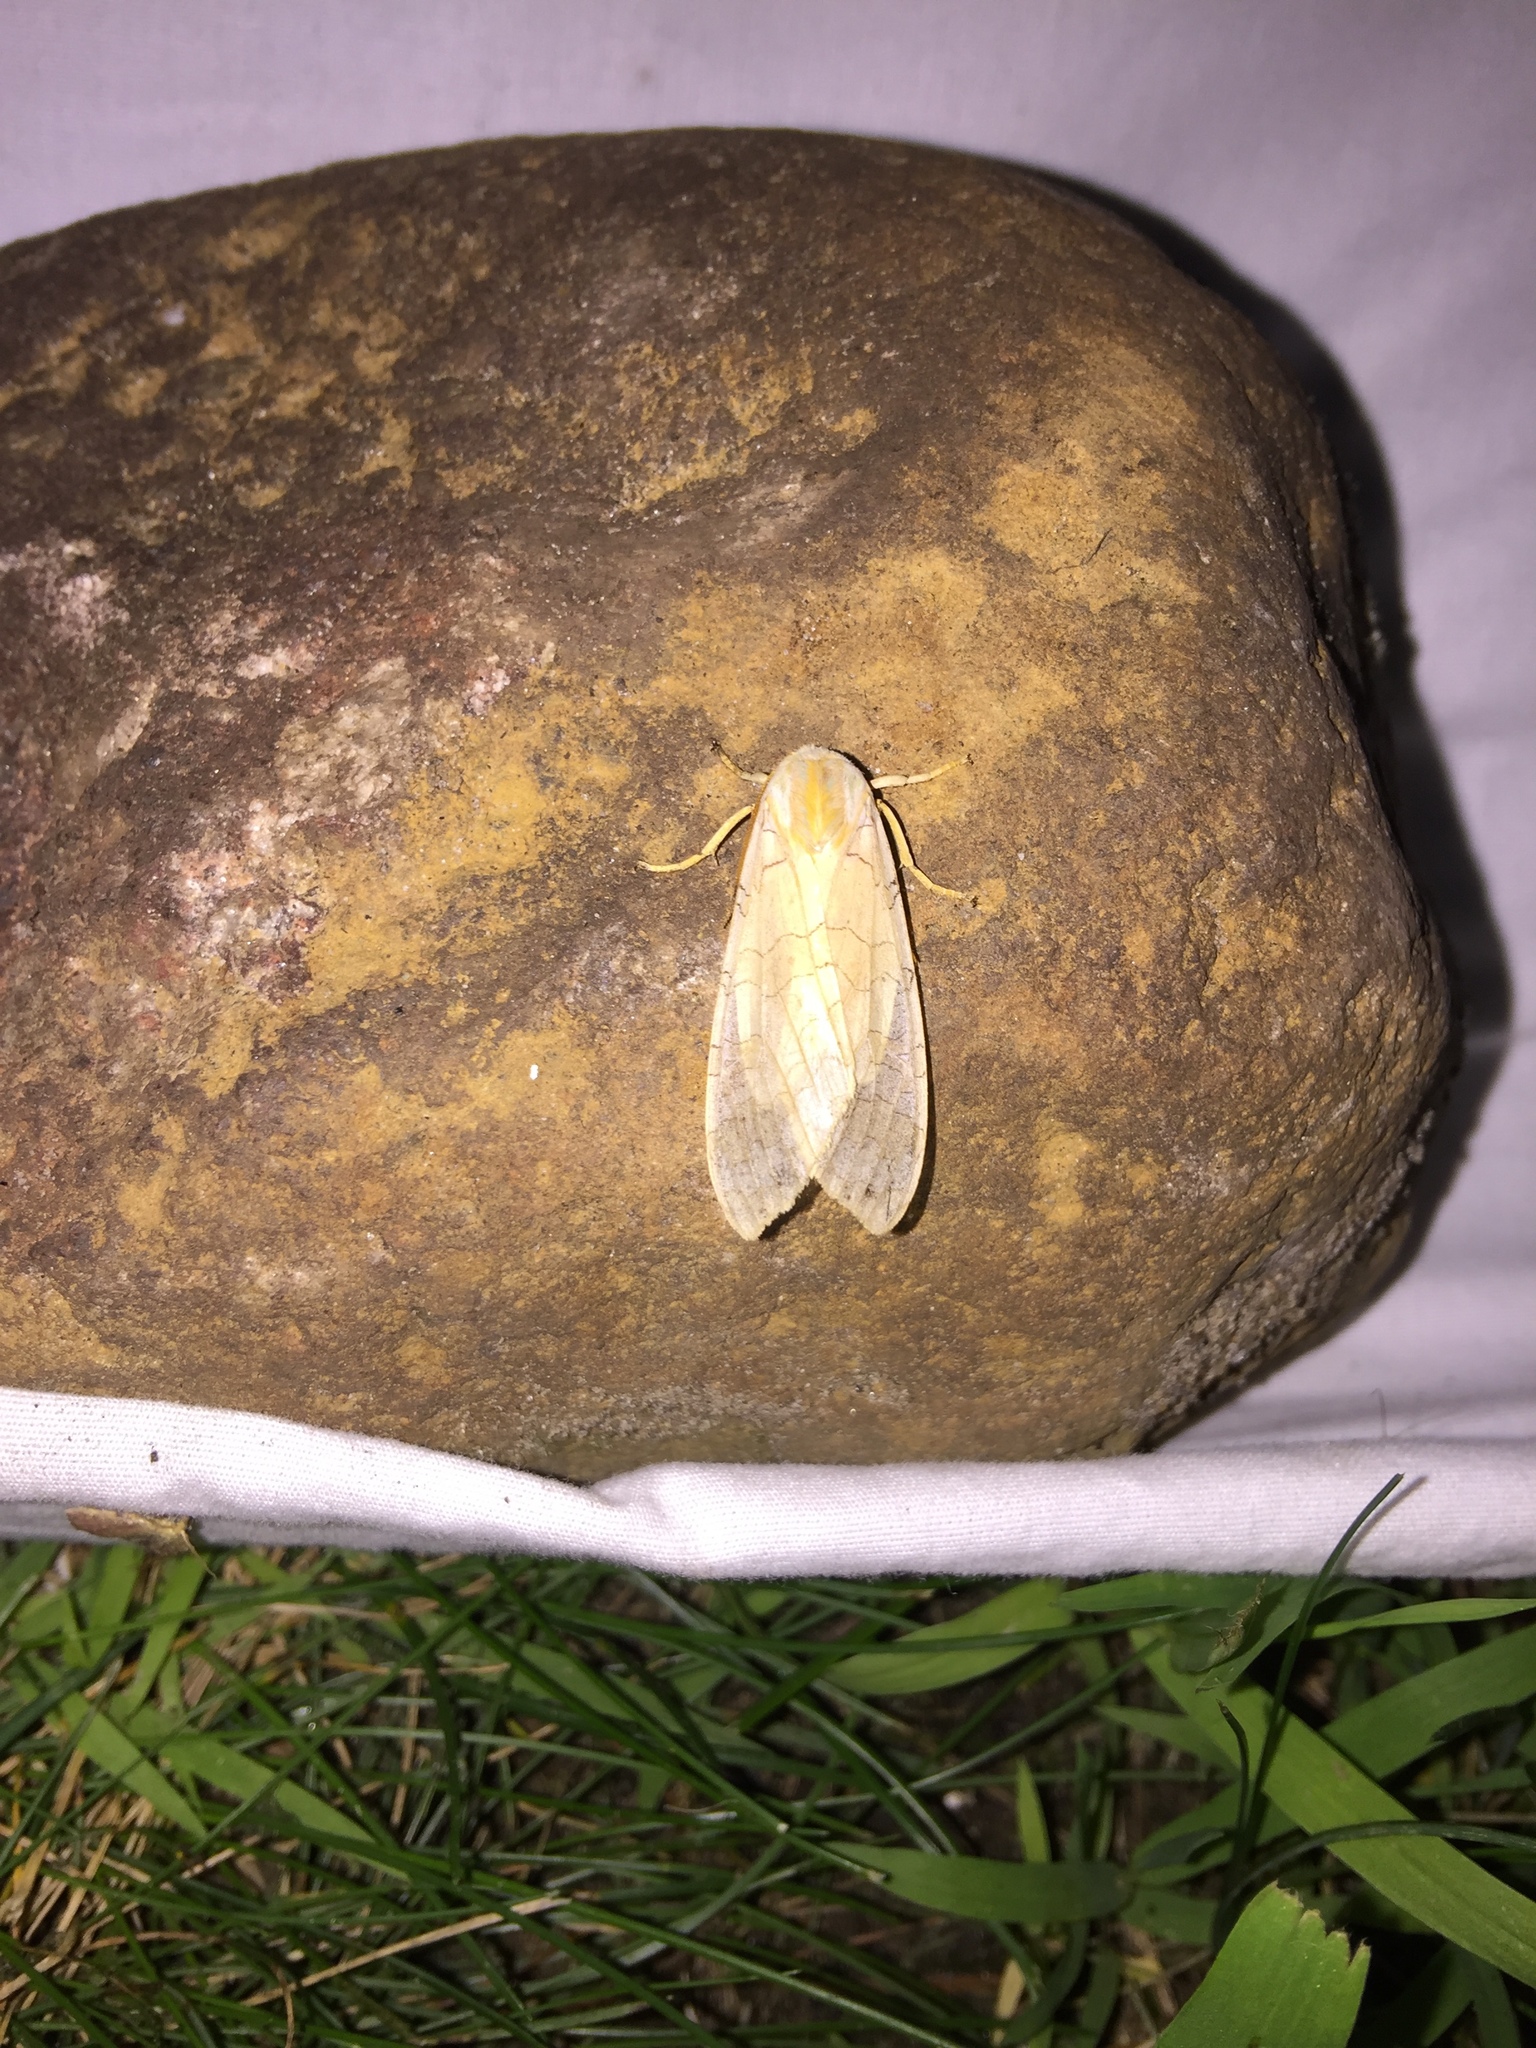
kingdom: Animalia
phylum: Arthropoda
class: Insecta
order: Lepidoptera
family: Erebidae
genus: Halysidota
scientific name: Halysidota tessellaris
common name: Banded tussock moth
